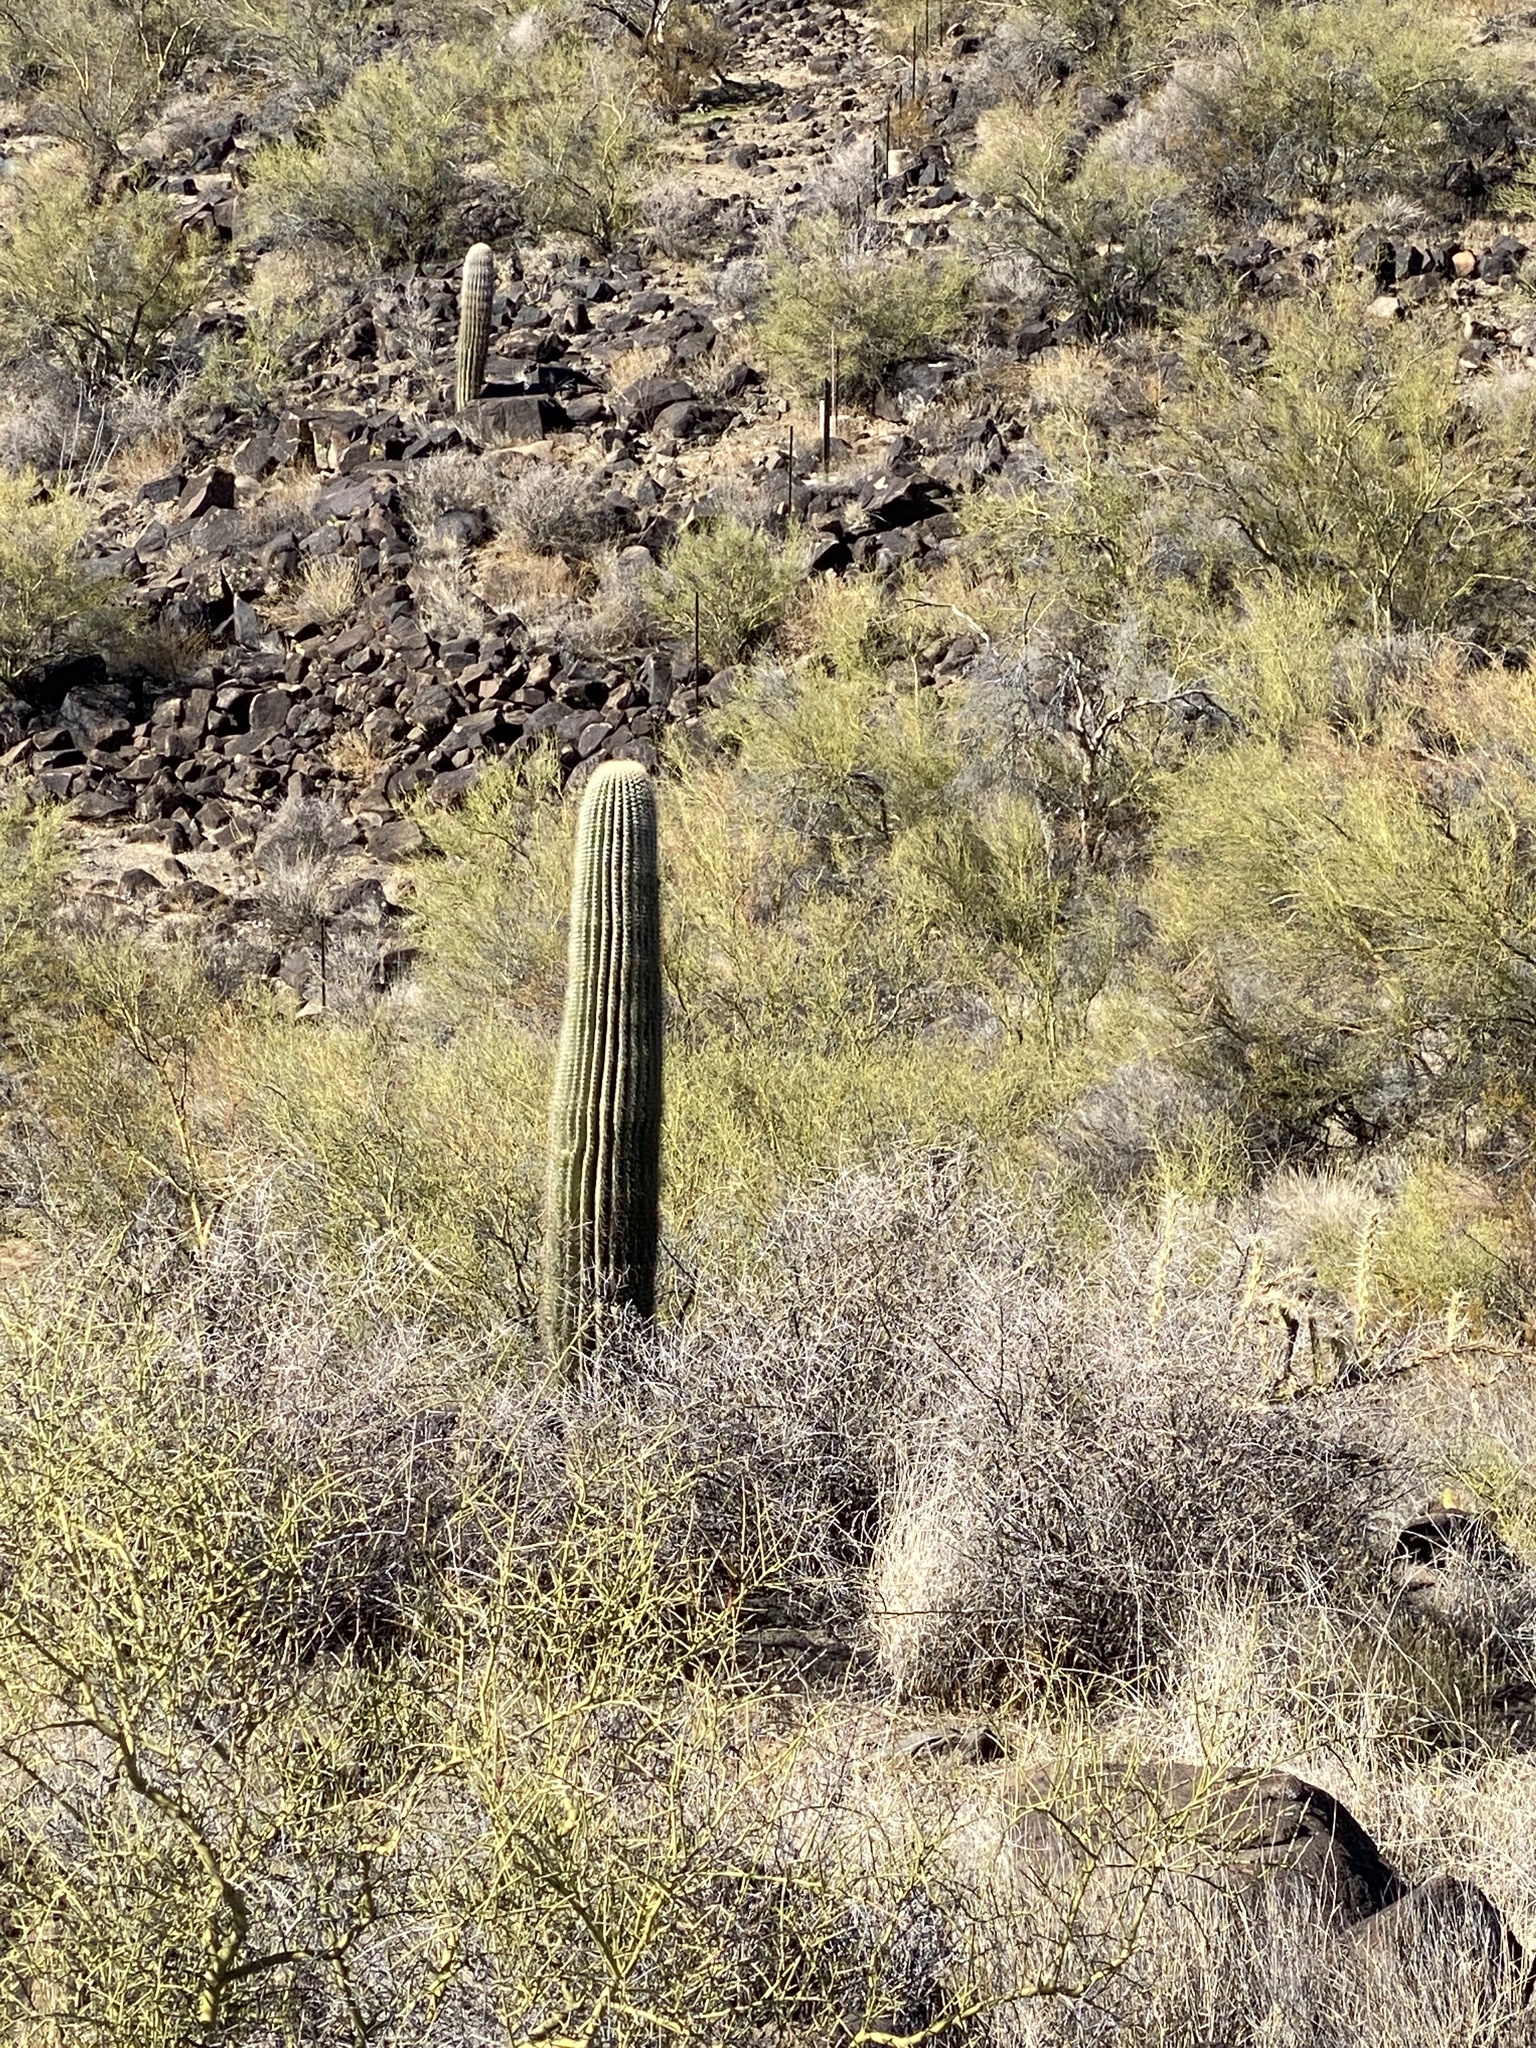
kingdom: Plantae
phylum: Tracheophyta
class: Magnoliopsida
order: Caryophyllales
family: Cactaceae
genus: Carnegiea
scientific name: Carnegiea gigantea
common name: Saguaro
